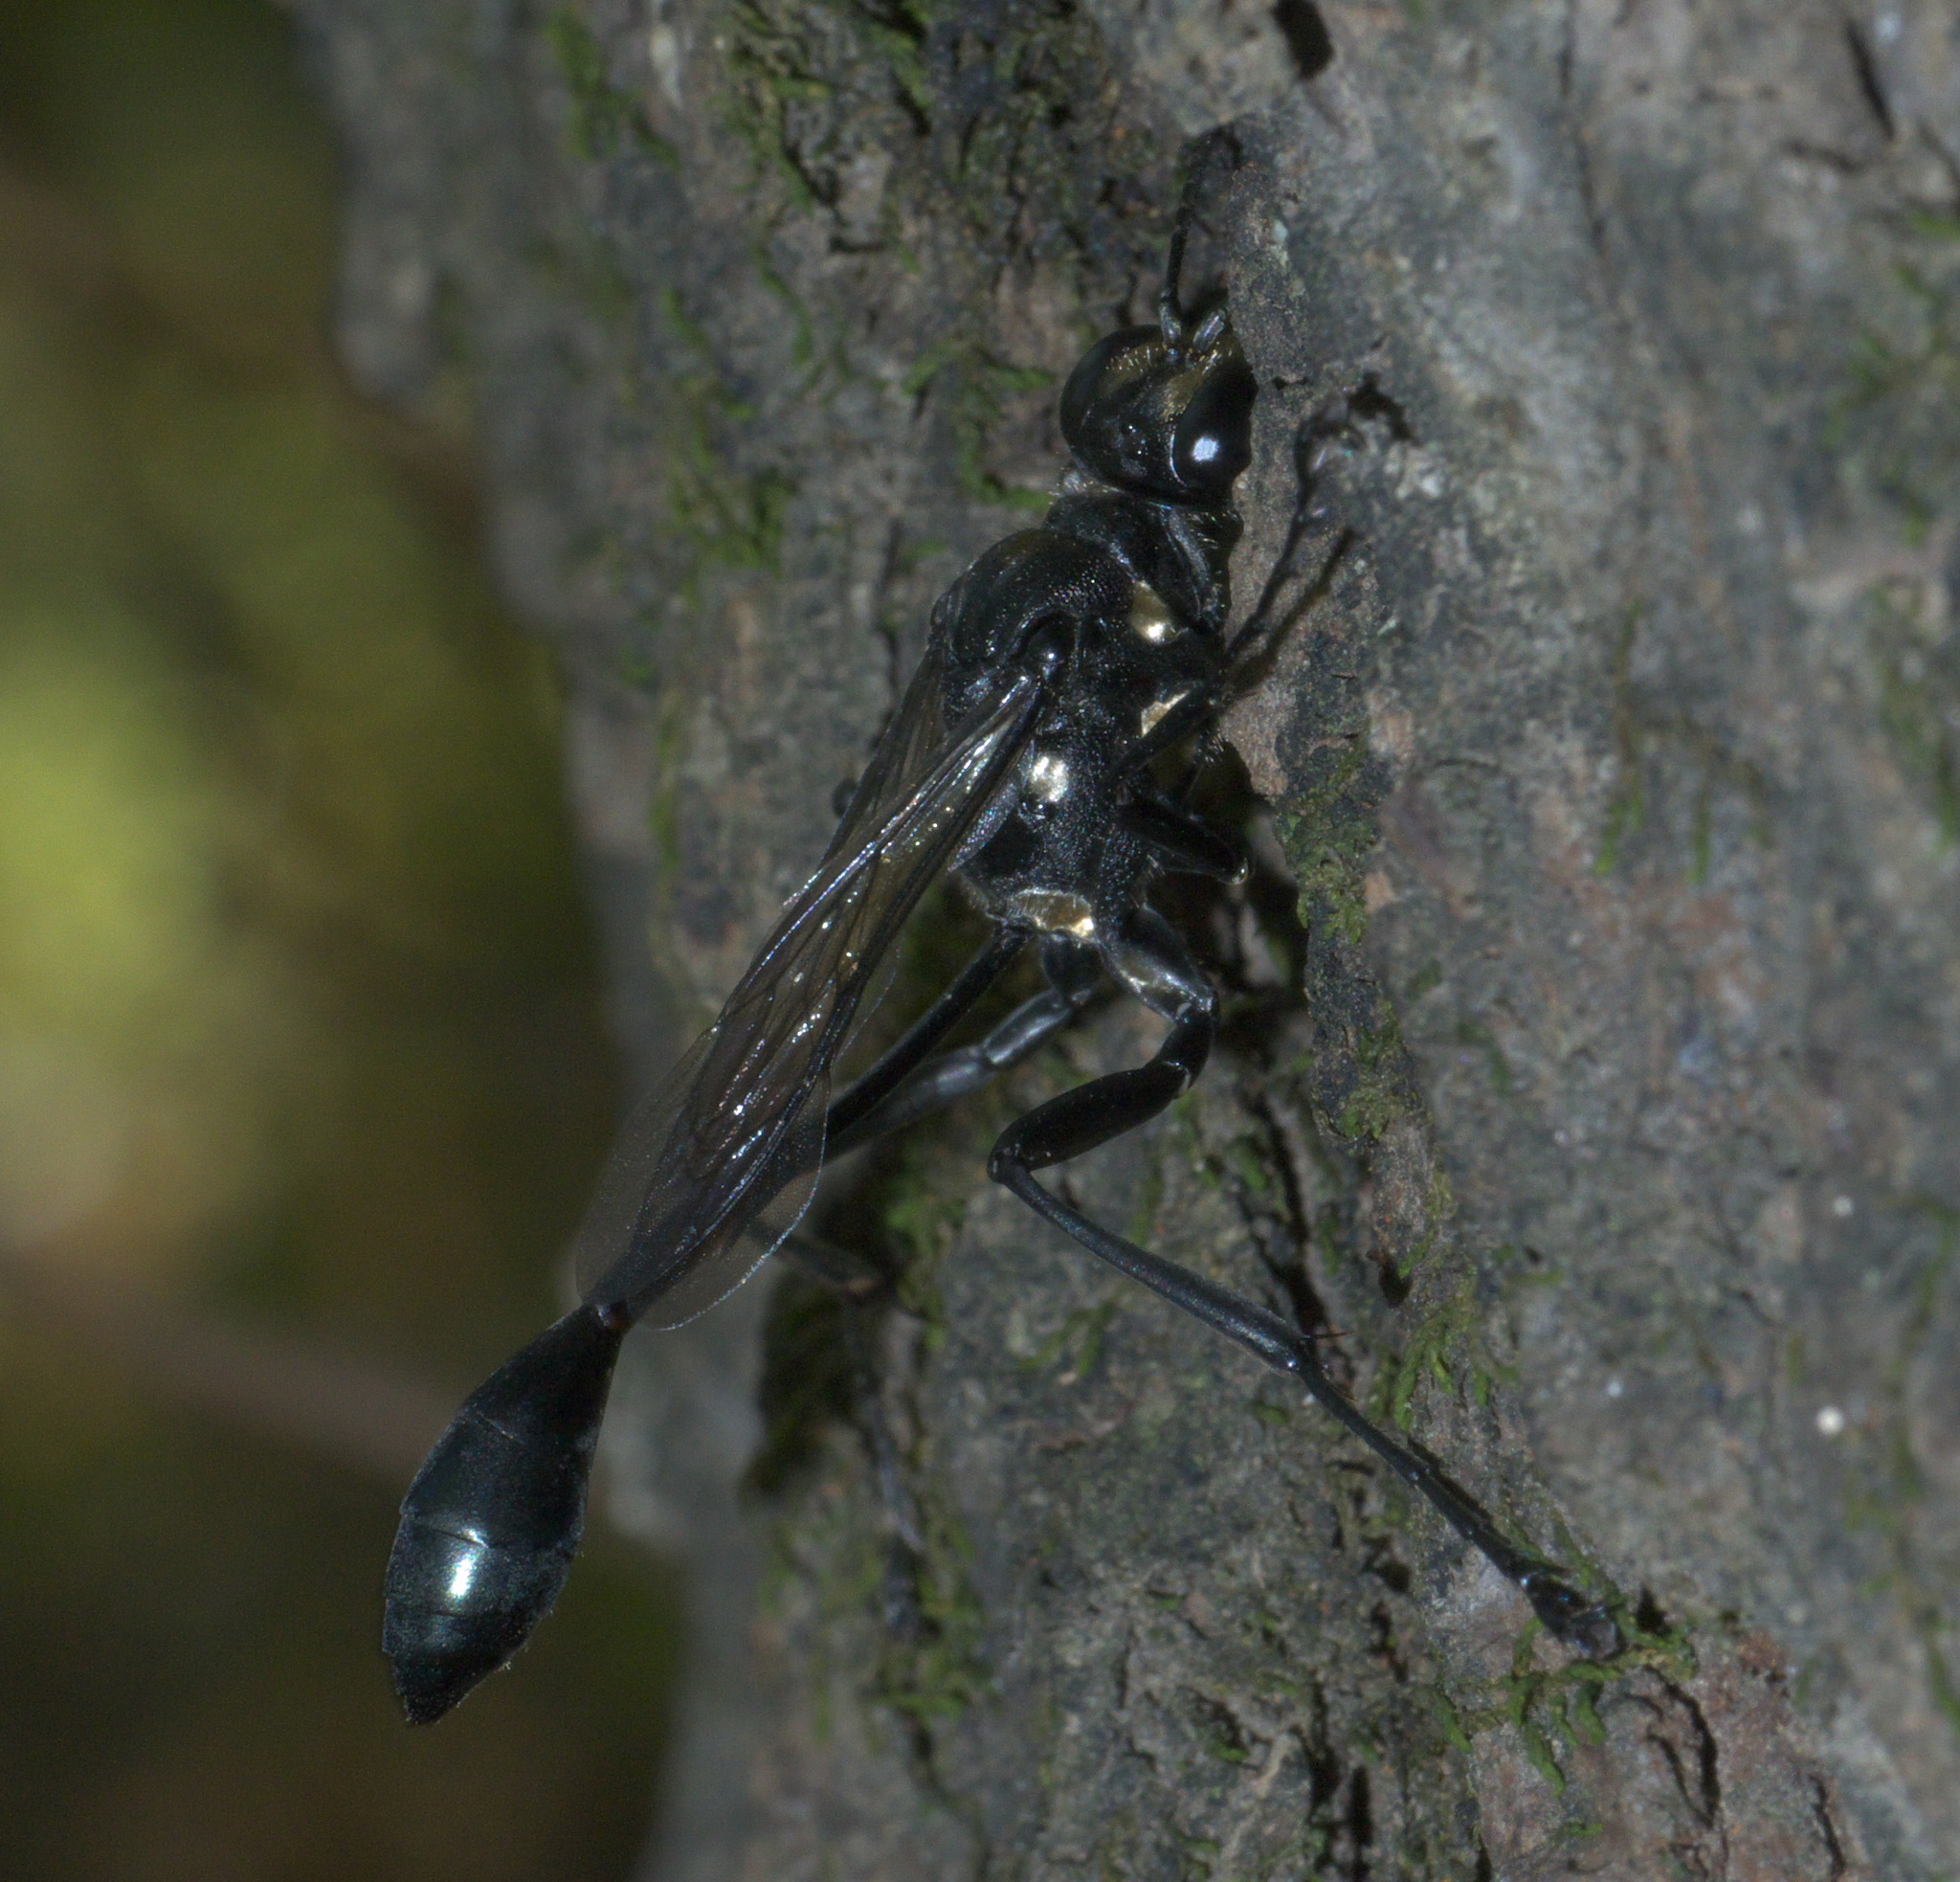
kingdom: Animalia
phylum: Arthropoda
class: Insecta
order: Hymenoptera
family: Sphecidae
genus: Eremnophila
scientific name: Eremnophila aureonotata
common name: Gold-marked thread-waisted wasp
